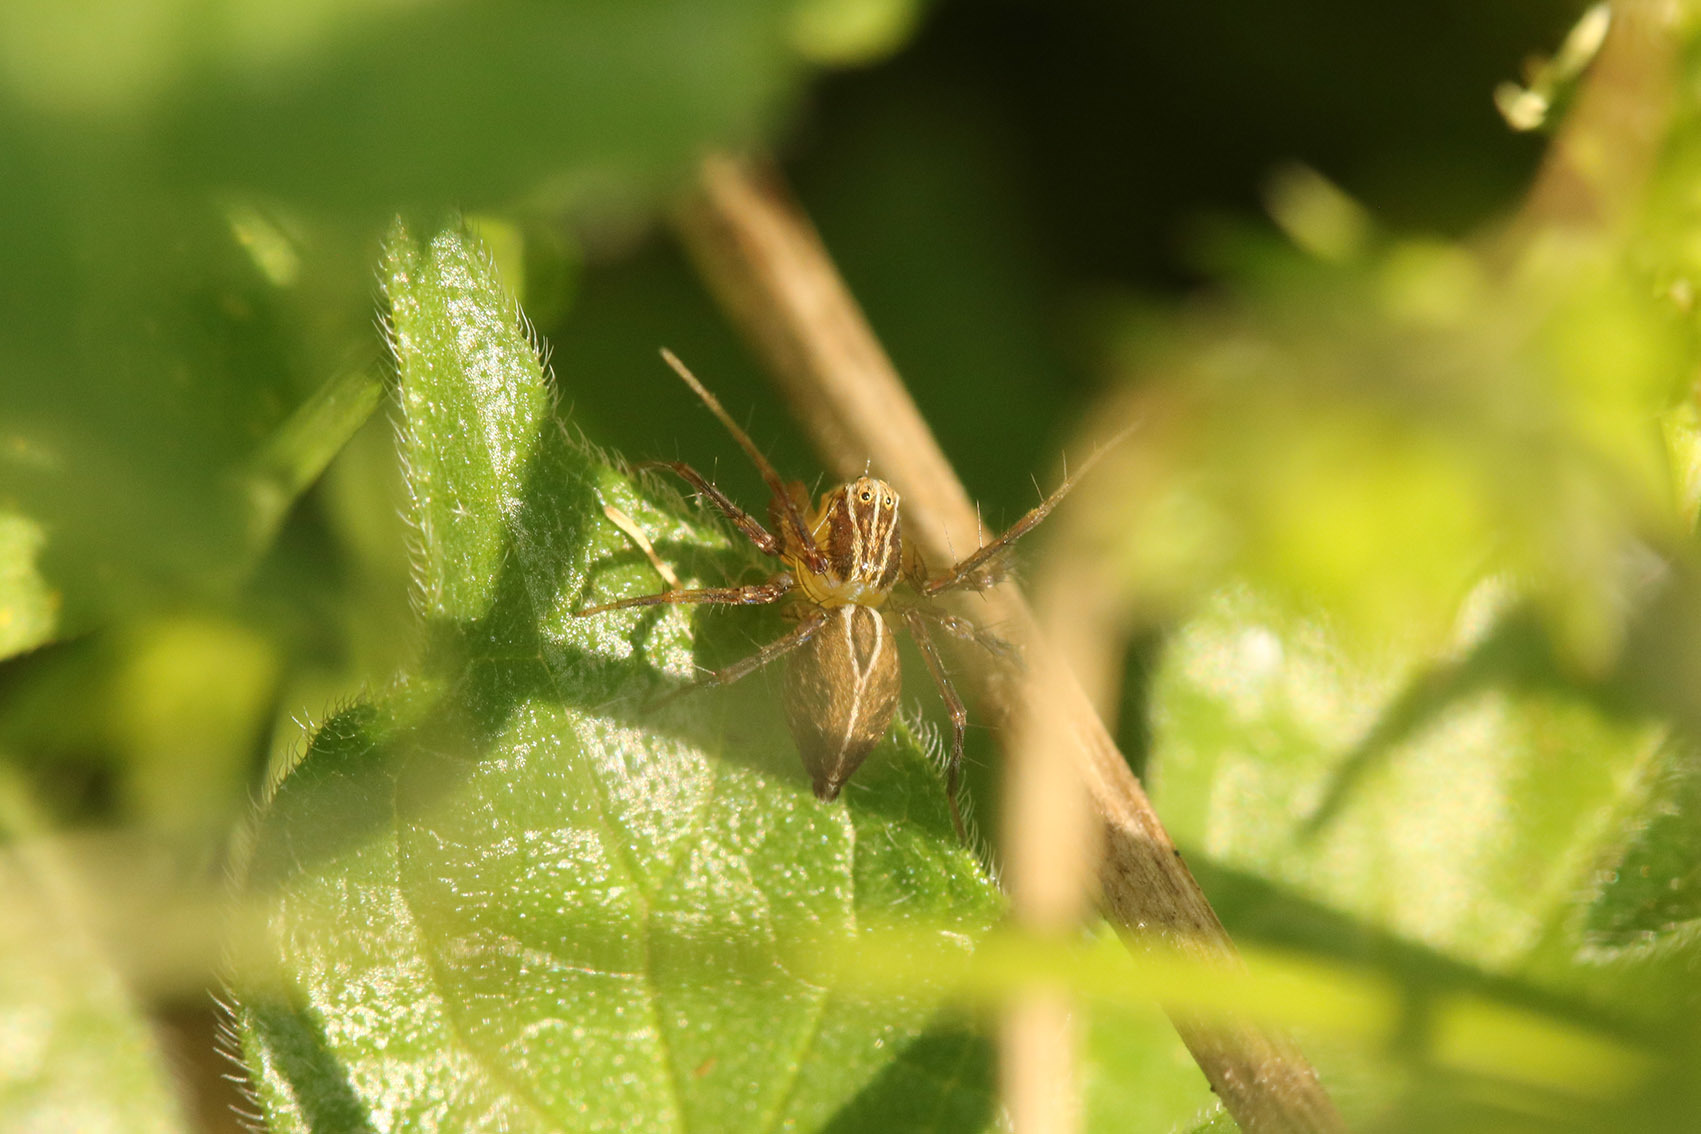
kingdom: Animalia
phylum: Arthropoda
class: Arachnida
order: Araneae
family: Oxyopidae
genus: Oxyopes
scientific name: Oxyopes salticus
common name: Lynx spiders
